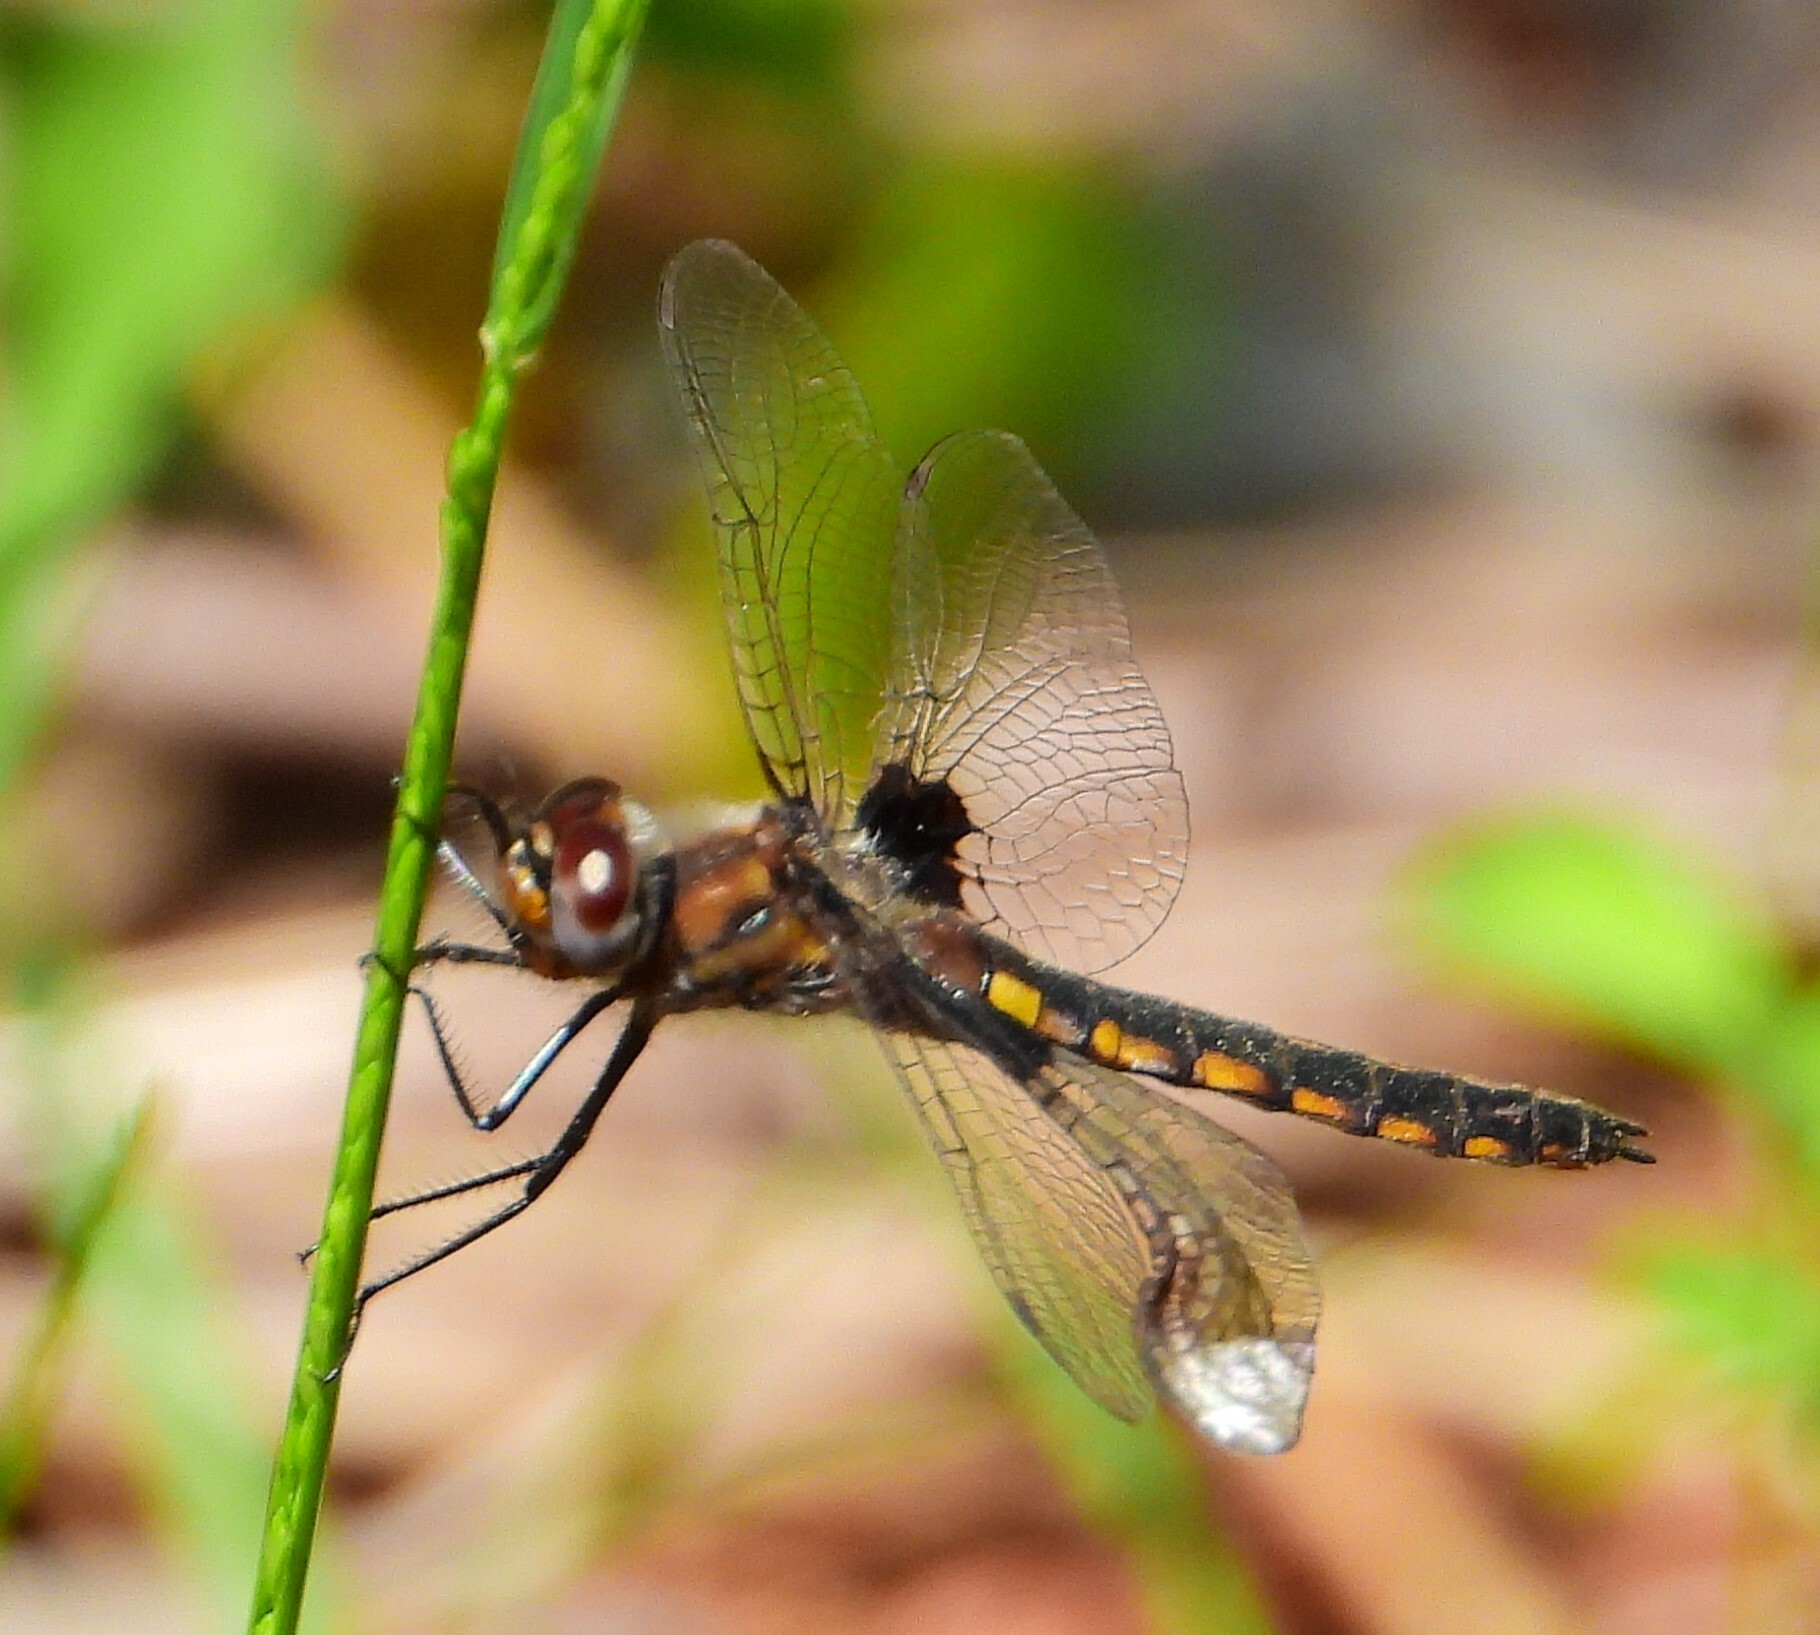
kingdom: Animalia
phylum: Arthropoda
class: Insecta
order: Odonata
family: Corduliidae
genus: Epitheca
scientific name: Epitheca cynosura
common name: Common baskettail
